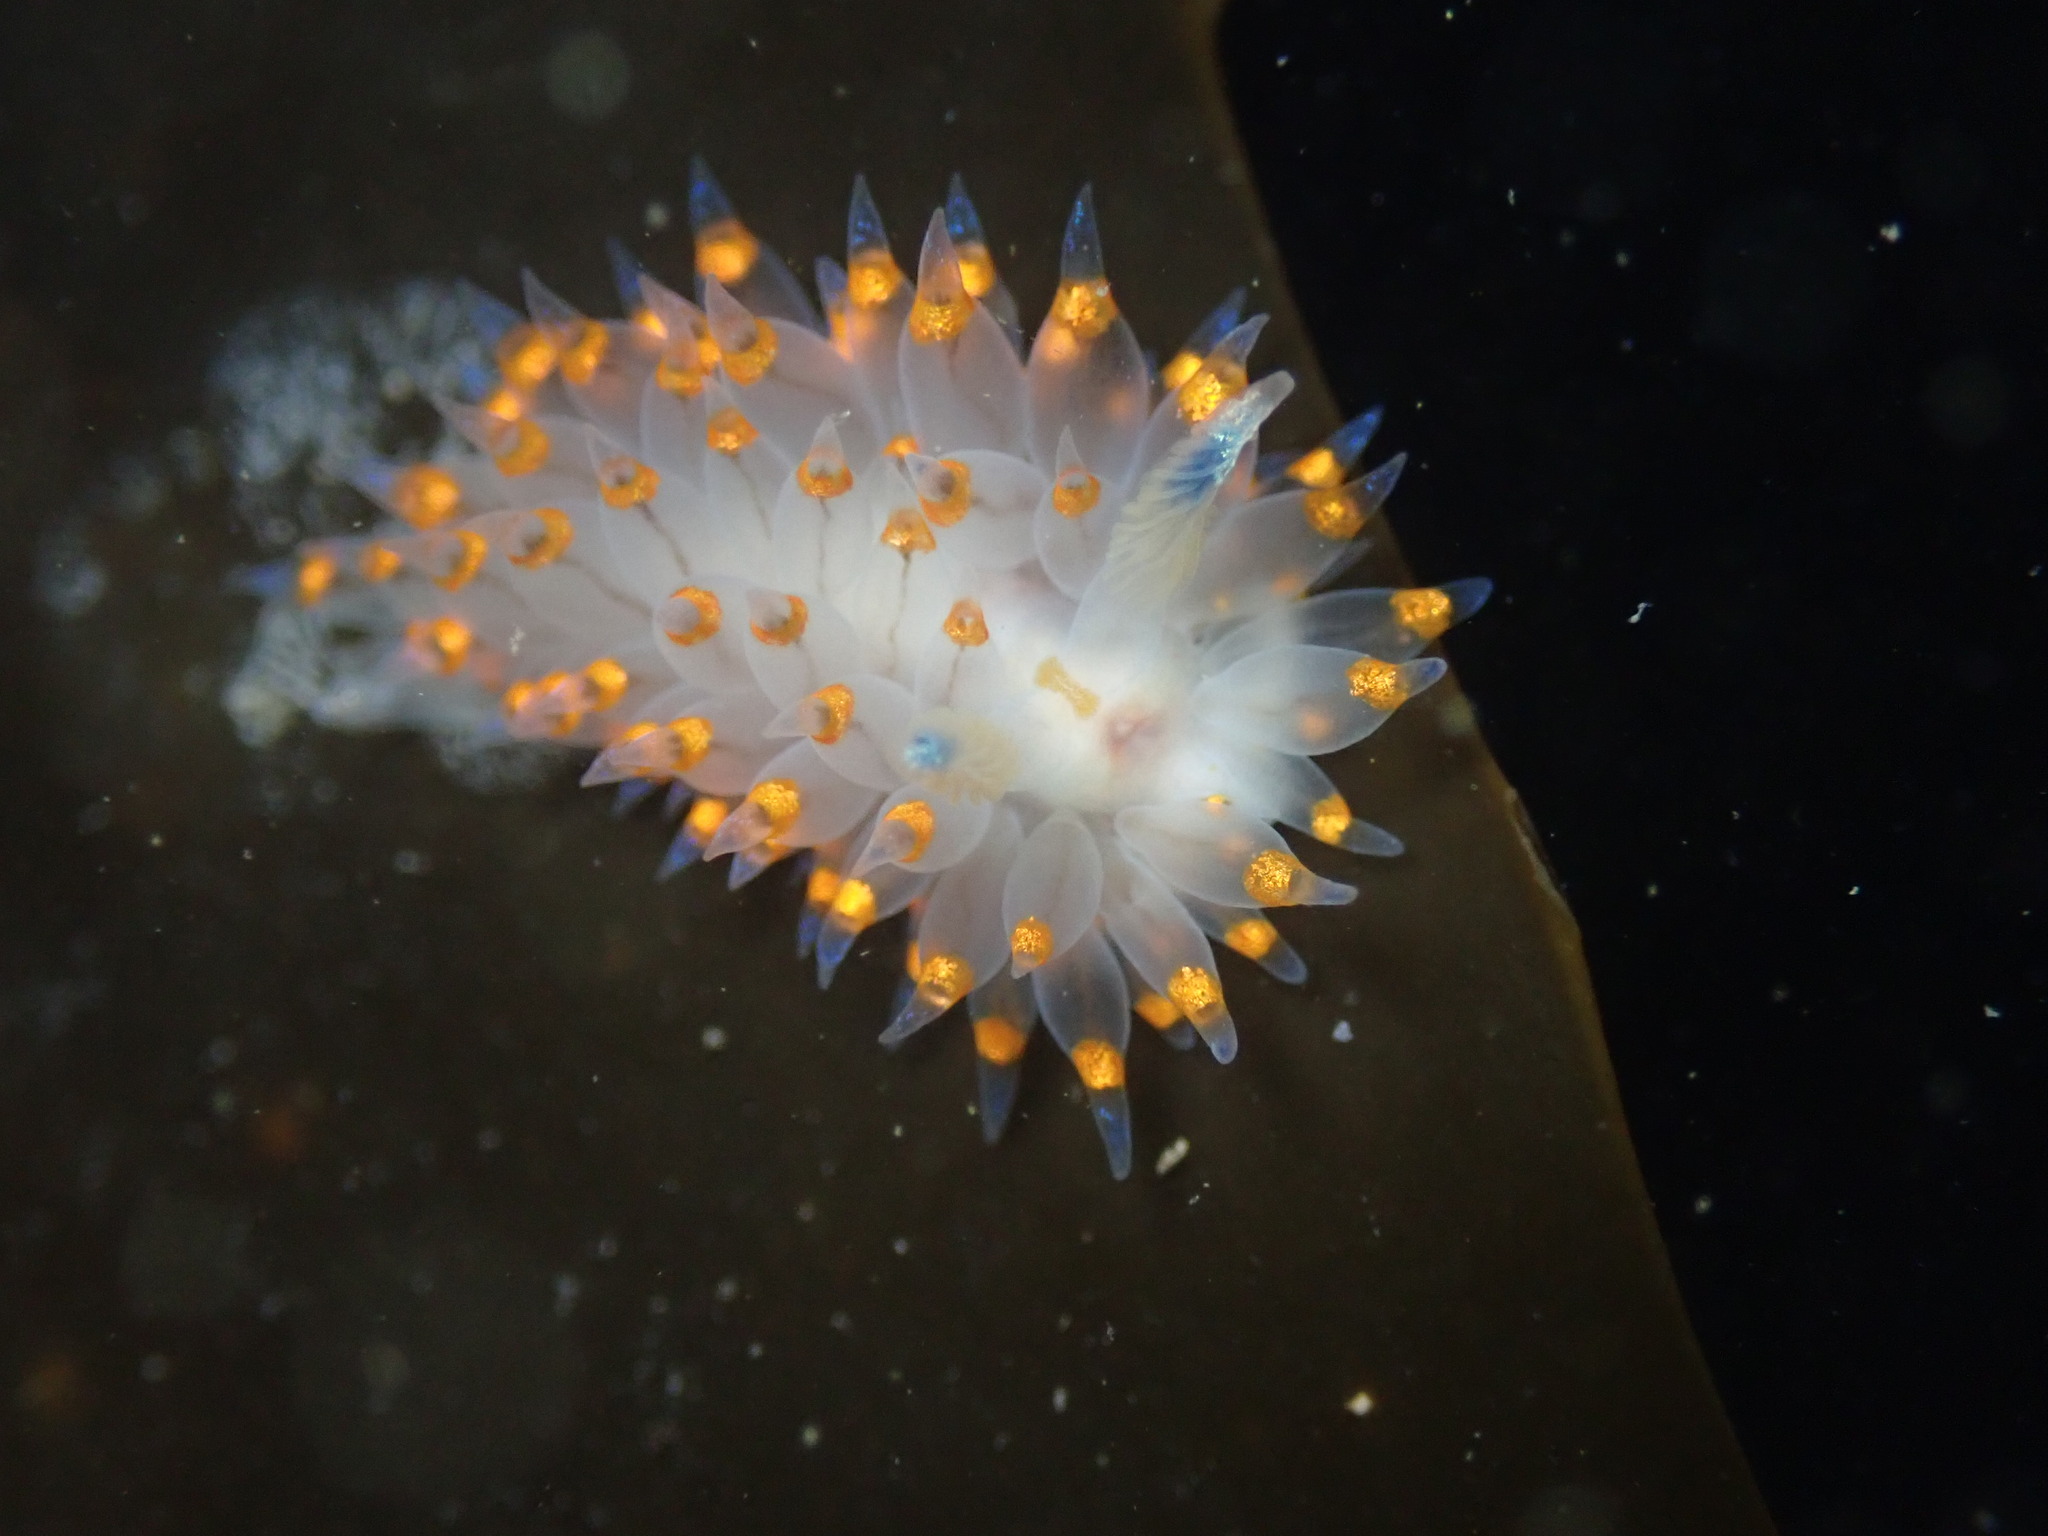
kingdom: Animalia
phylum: Mollusca
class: Gastropoda
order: Nudibranchia
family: Janolidae
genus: Antiopella
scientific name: Antiopella barbarensis
